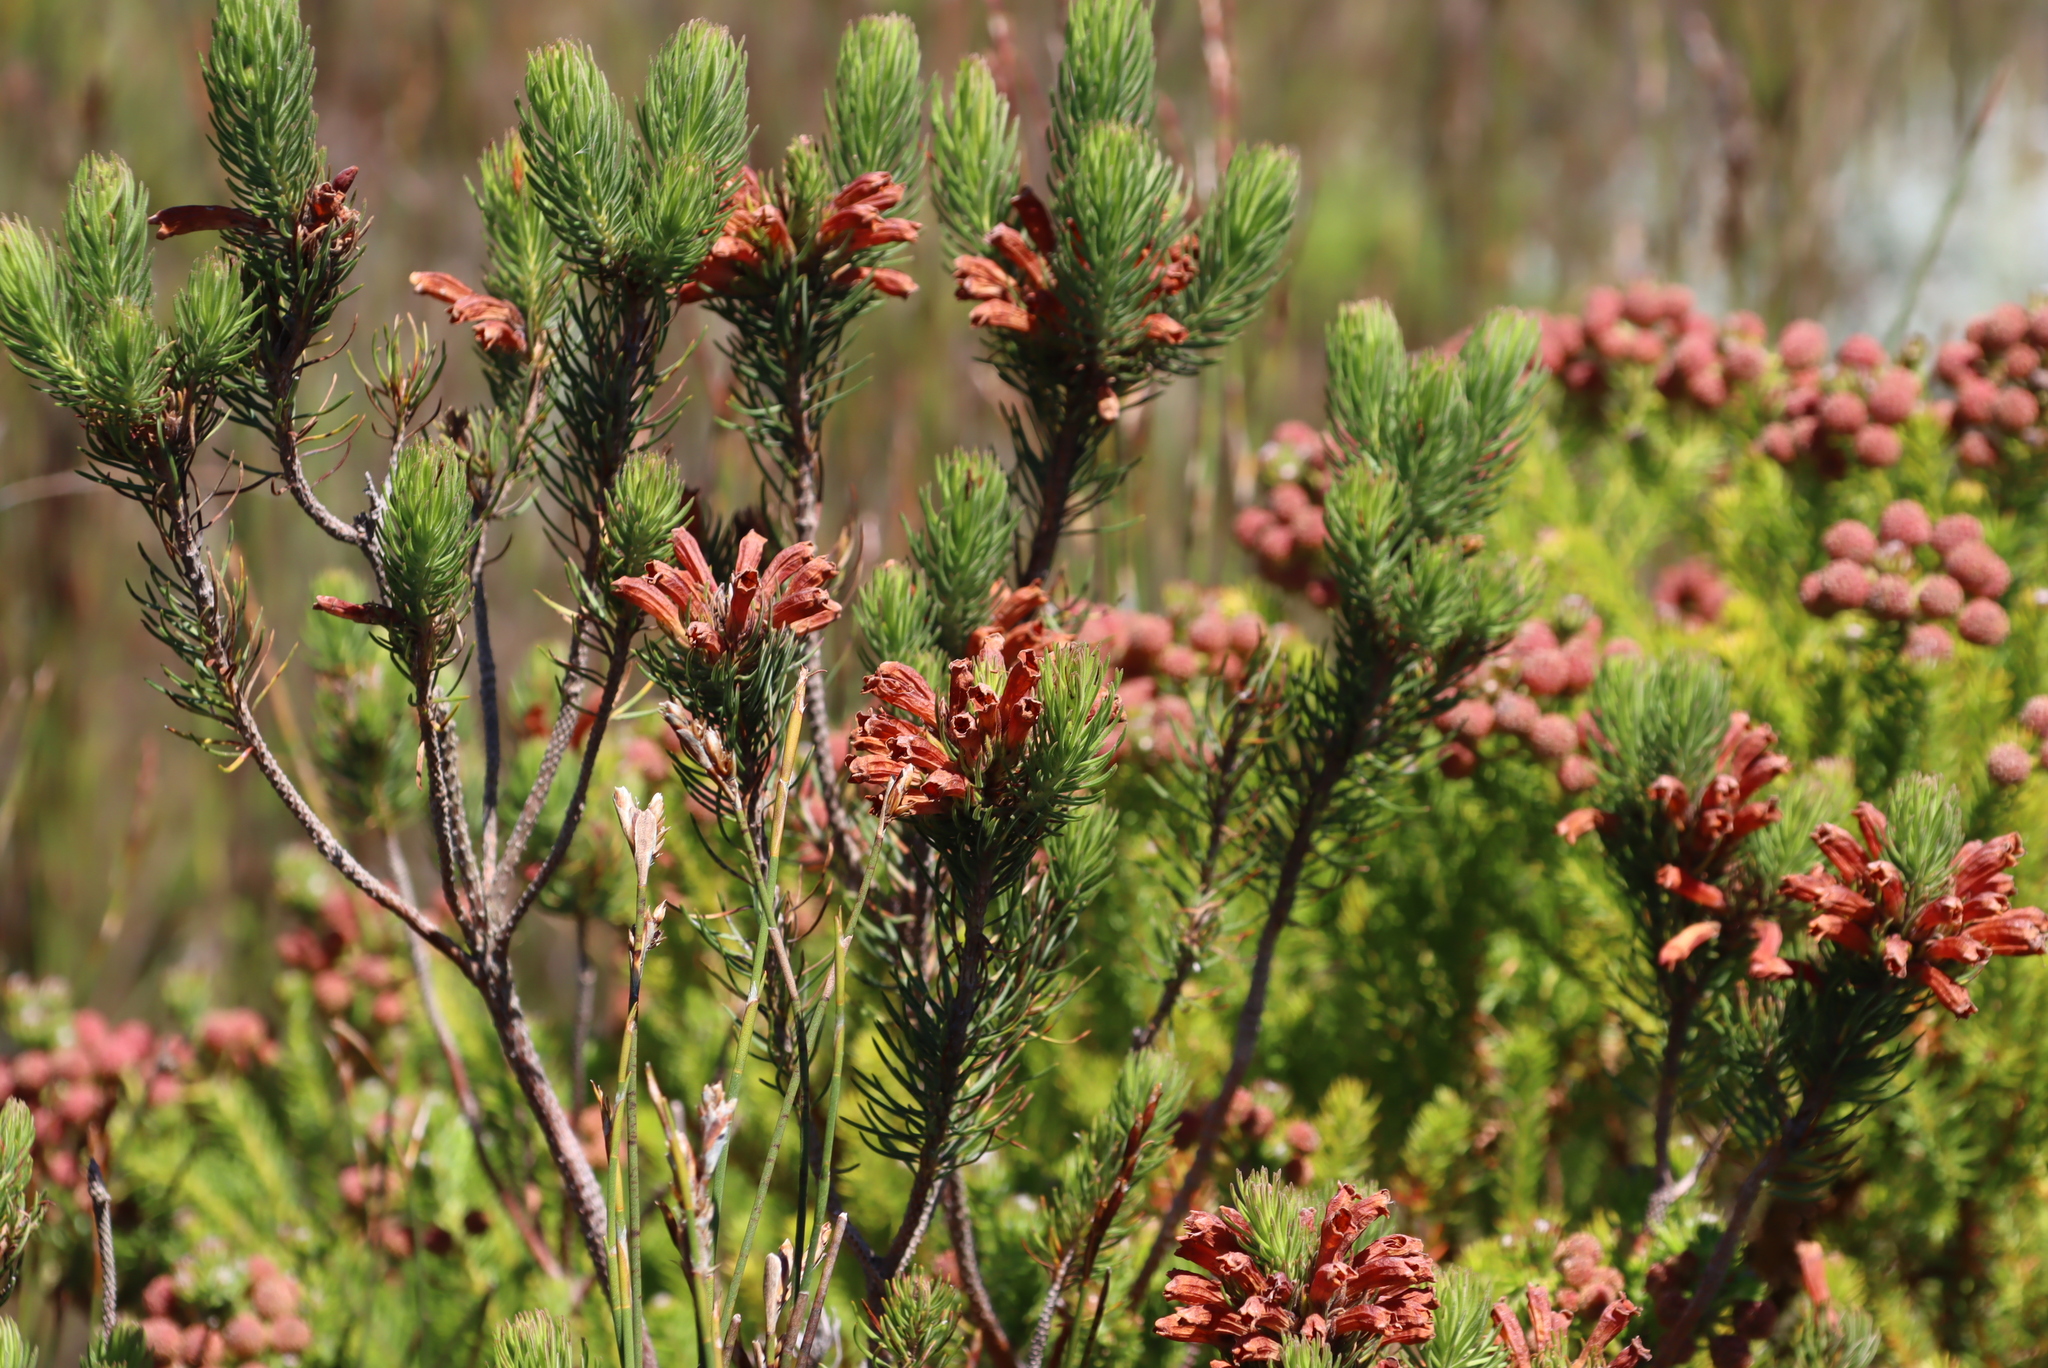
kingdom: Plantae
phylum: Tracheophyta
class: Magnoliopsida
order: Ericales
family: Ericaceae
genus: Erica
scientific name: Erica viscaria
